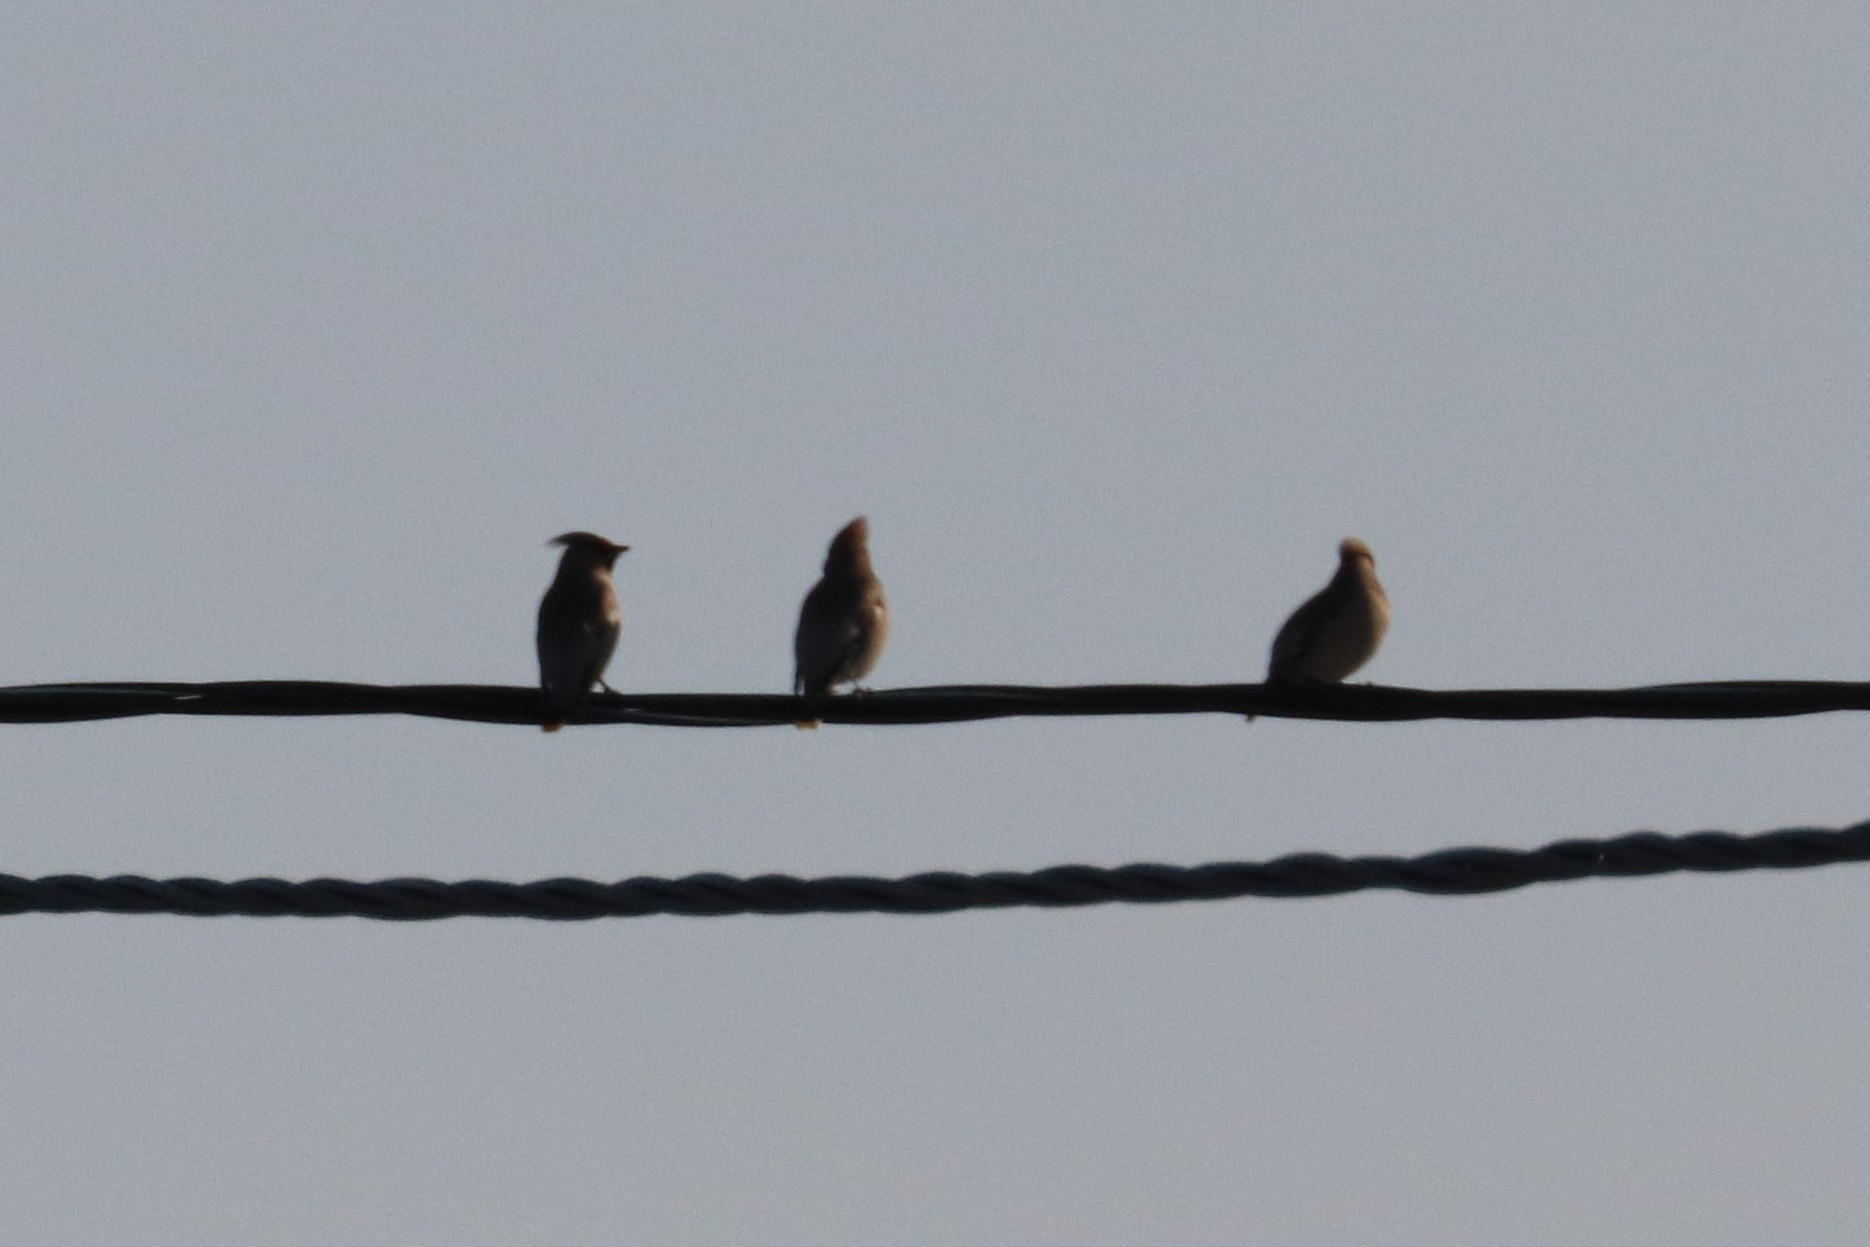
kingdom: Animalia
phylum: Chordata
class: Aves
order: Passeriformes
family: Bombycillidae
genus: Bombycilla
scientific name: Bombycilla garrulus
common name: Bohemian waxwing
